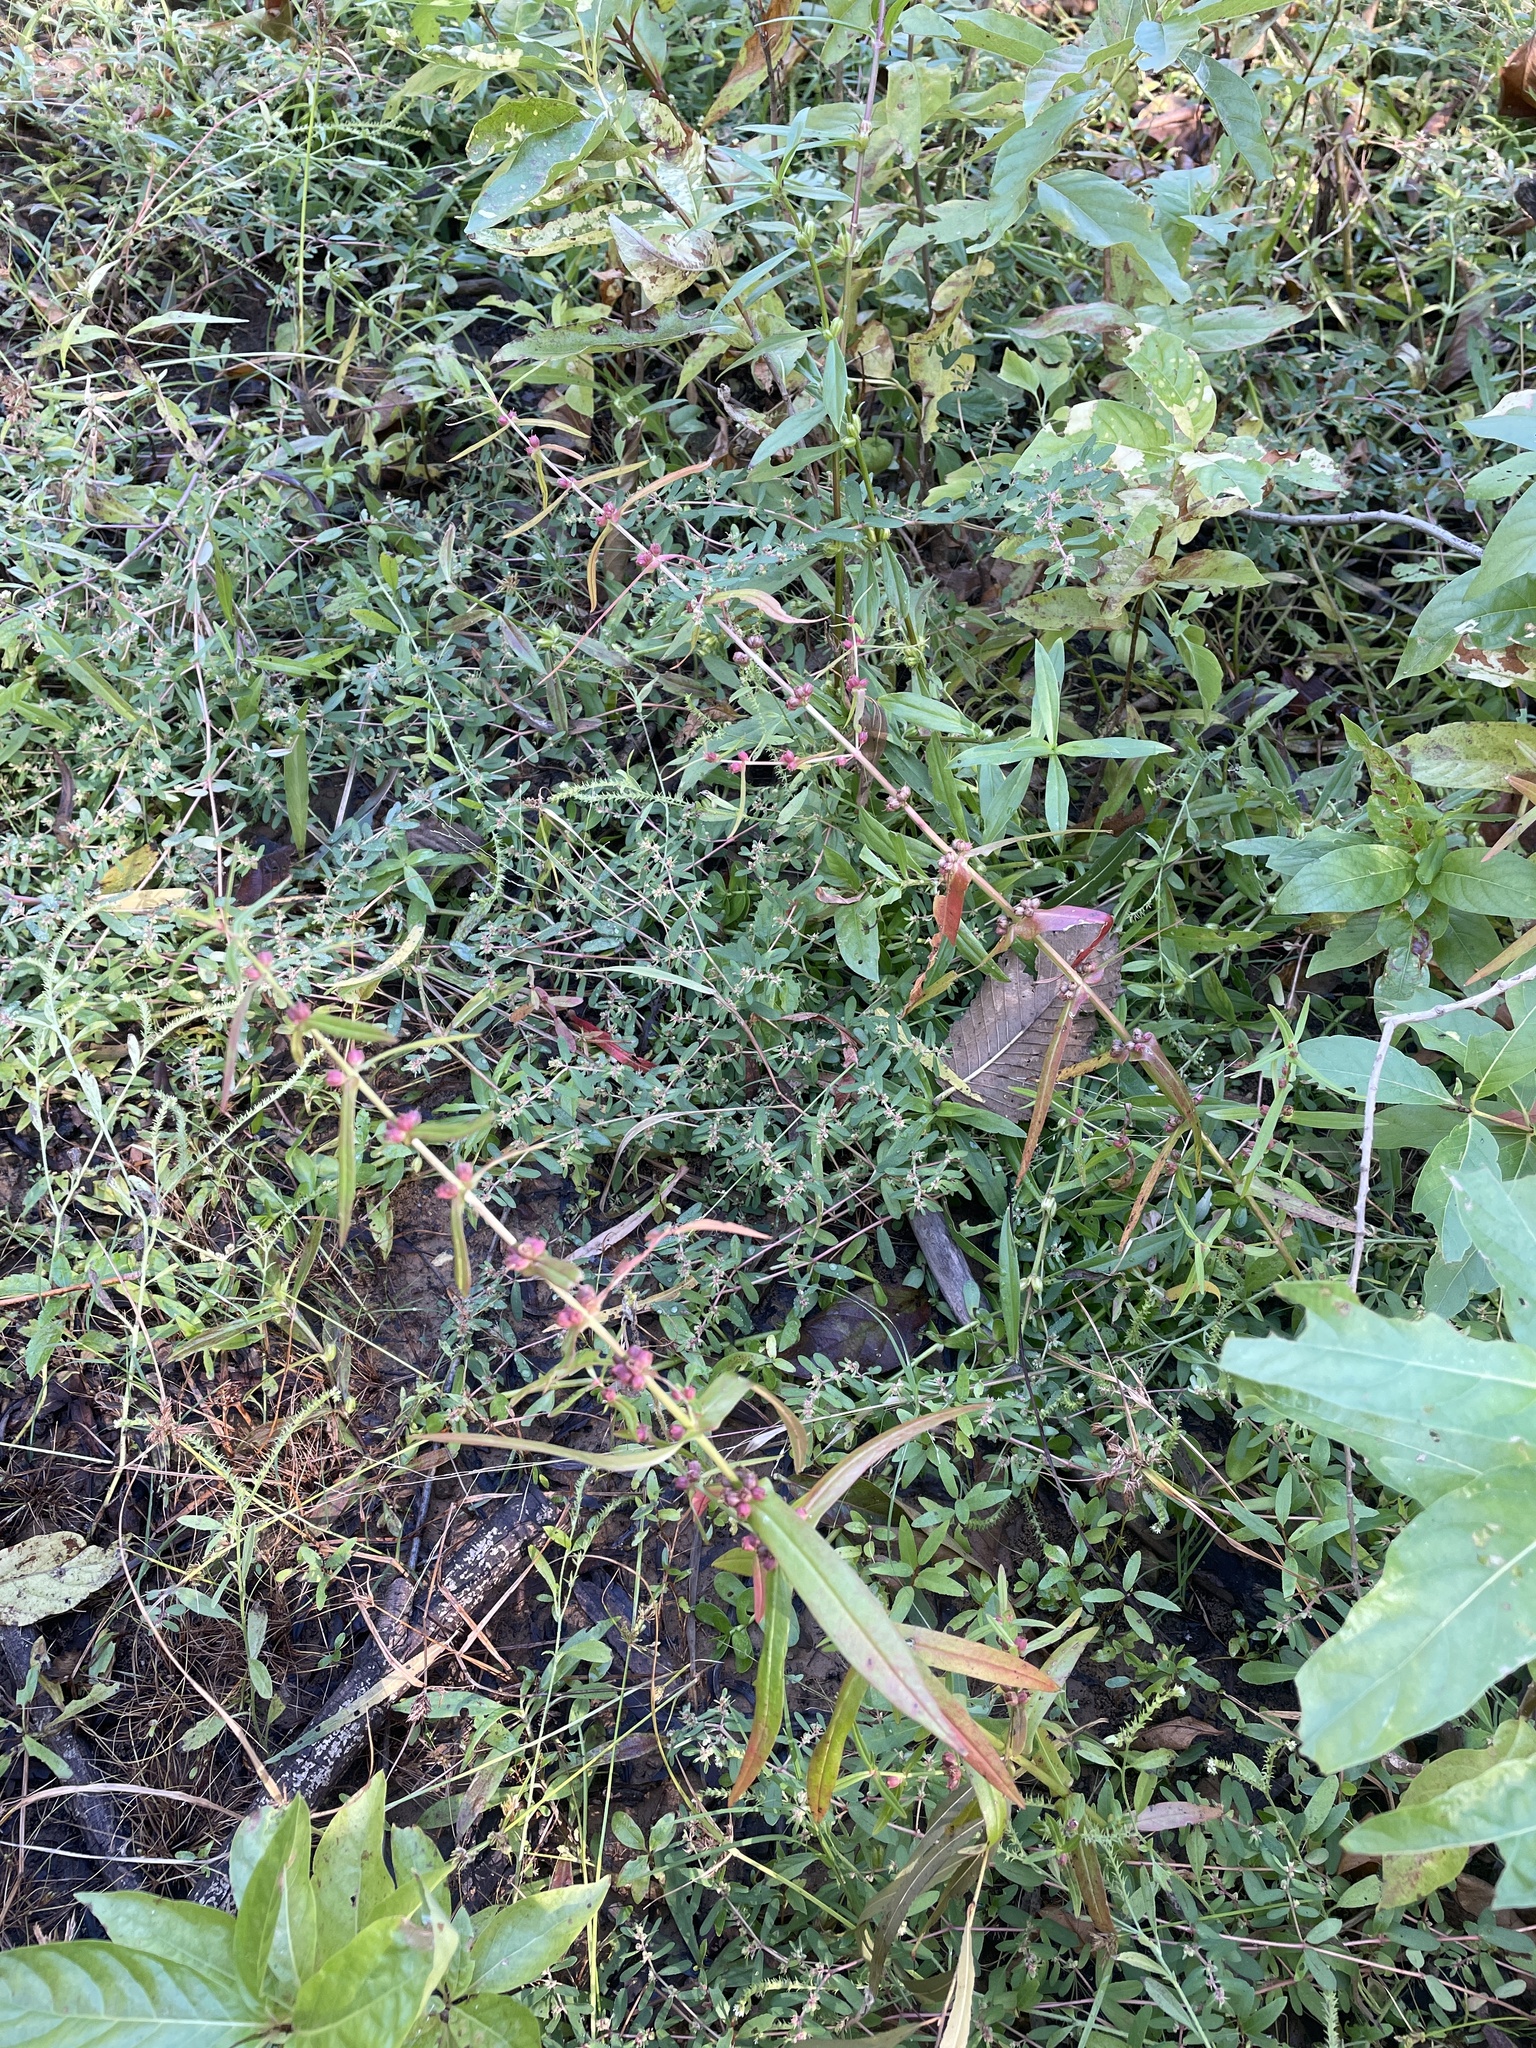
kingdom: Plantae
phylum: Tracheophyta
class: Magnoliopsida
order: Myrtales
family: Lythraceae
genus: Ammannia
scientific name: Ammannia coccinea
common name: Valley redstem
